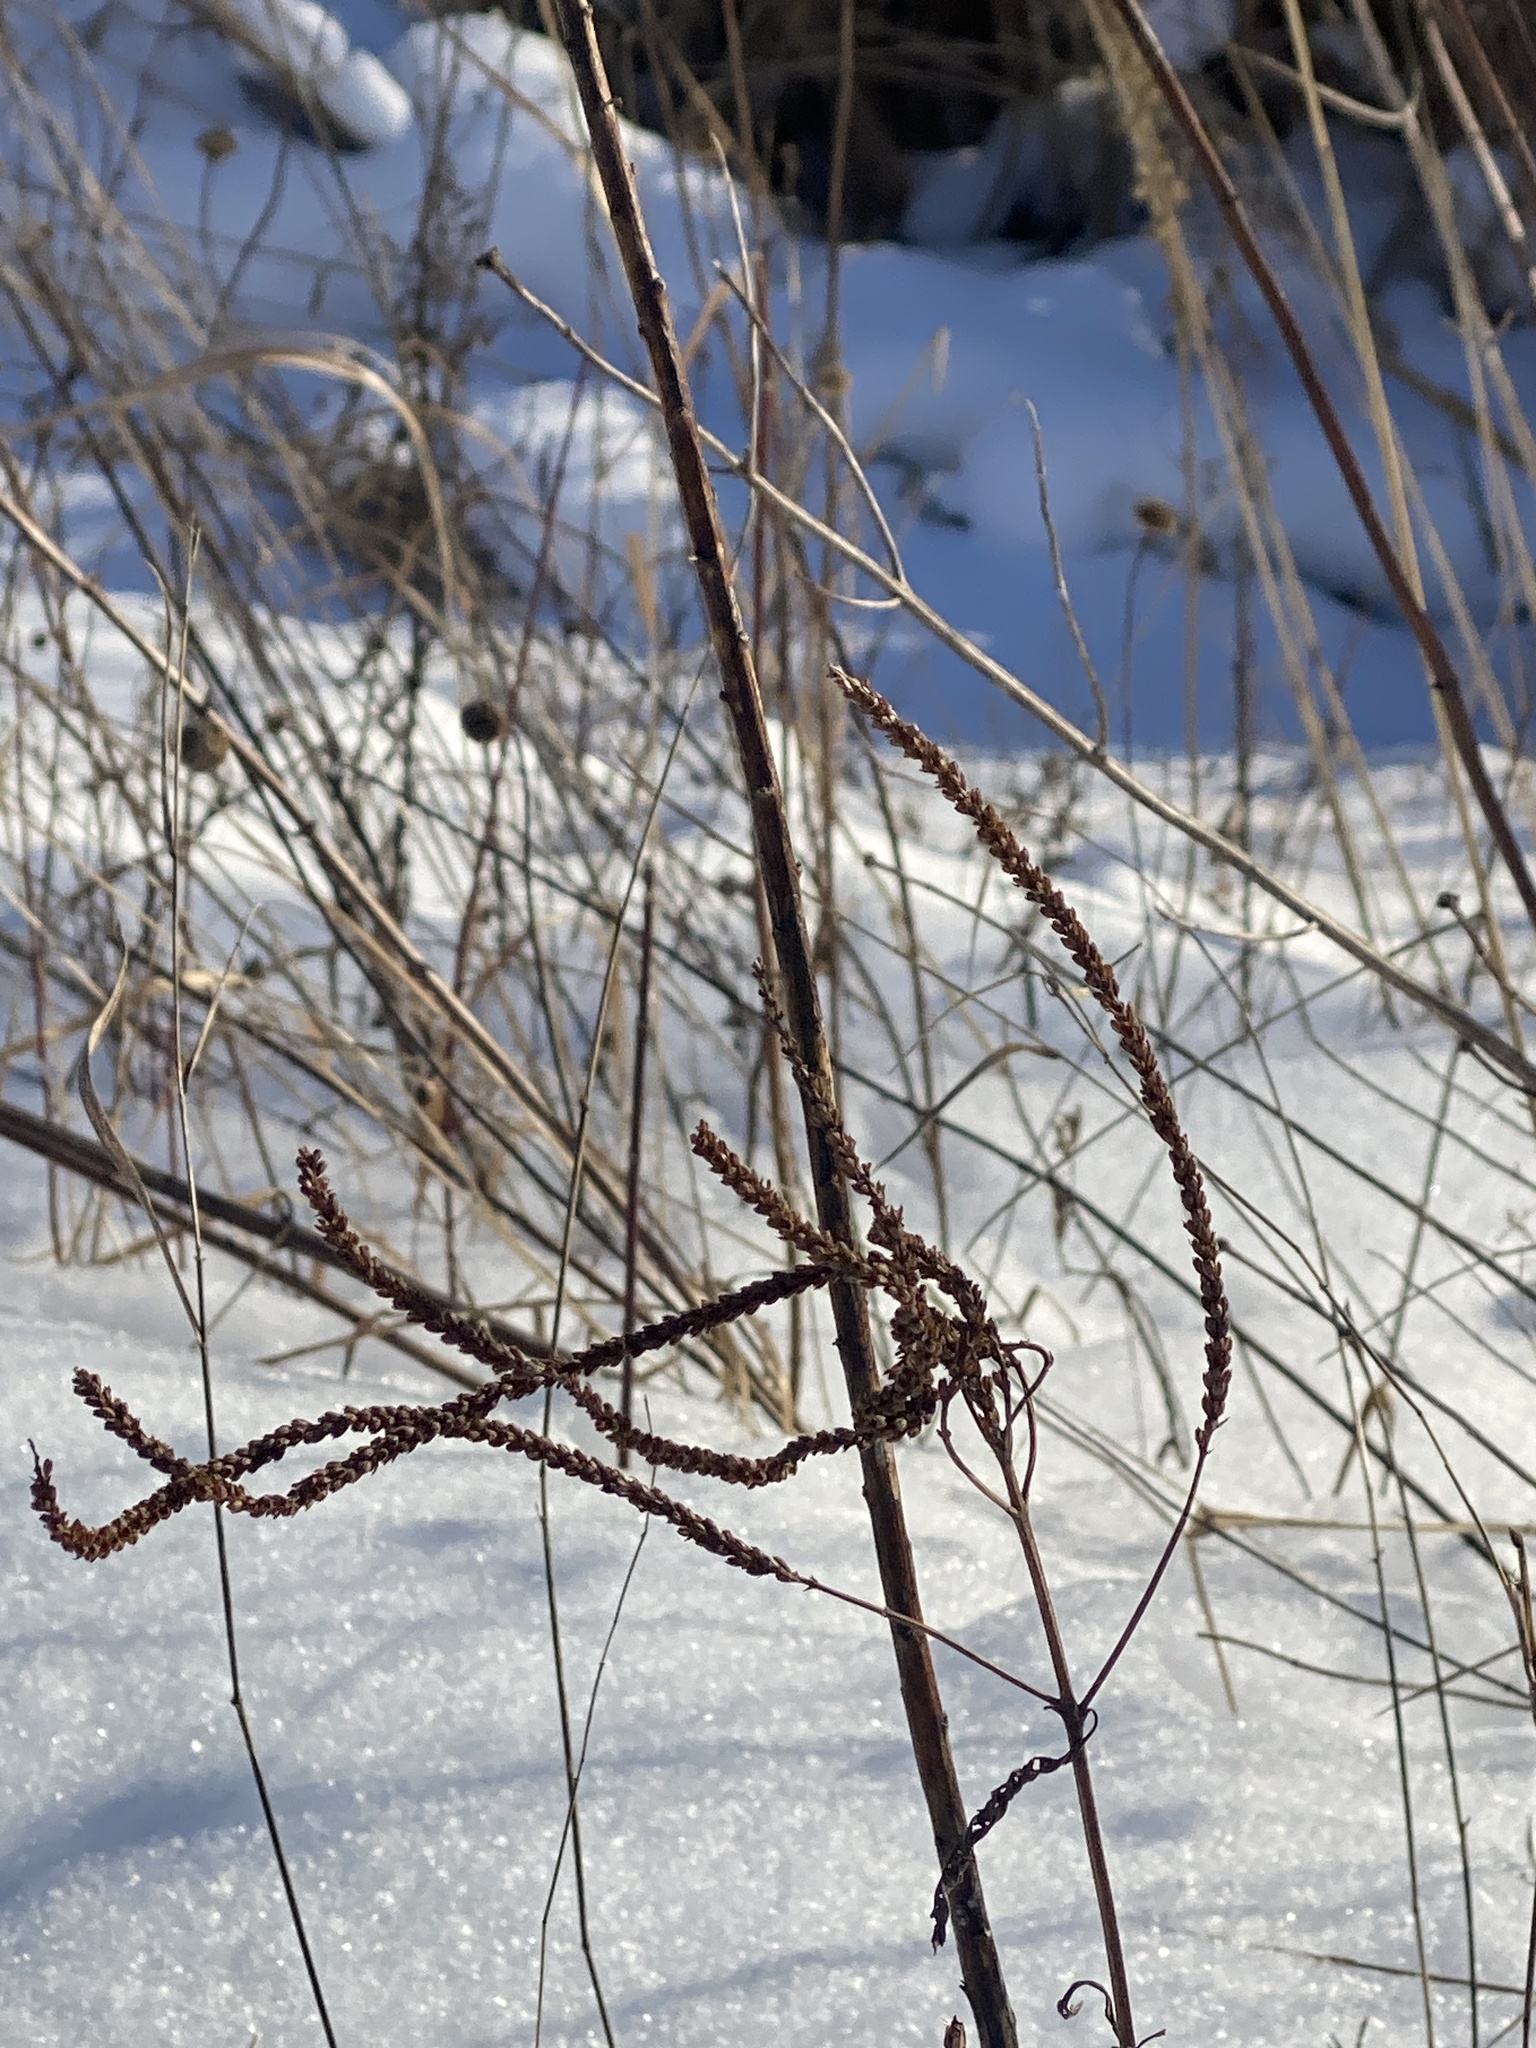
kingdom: Plantae
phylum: Tracheophyta
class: Magnoliopsida
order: Lamiales
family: Verbenaceae
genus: Verbena
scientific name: Verbena hastata
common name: American blue vervain
